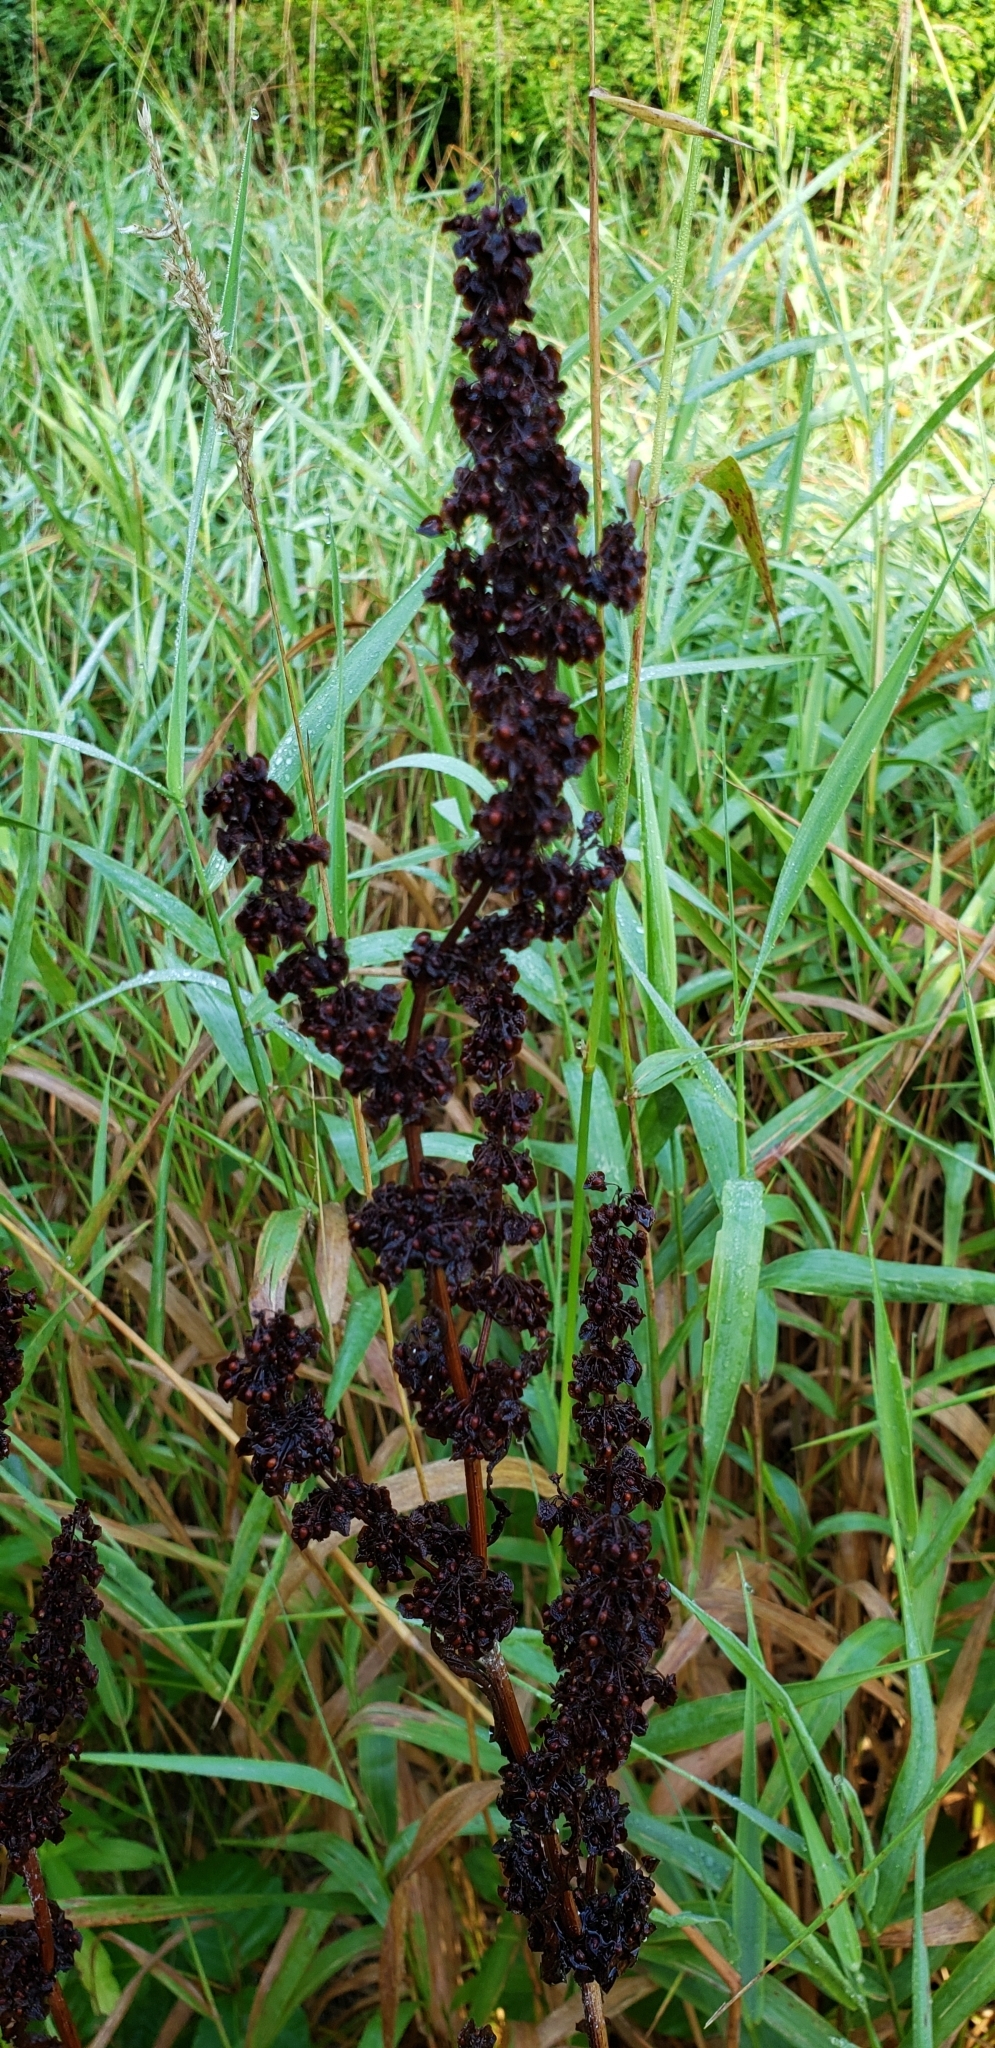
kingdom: Plantae
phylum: Tracheophyta
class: Magnoliopsida
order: Caryophyllales
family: Polygonaceae
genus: Rumex
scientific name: Rumex crispus
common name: Curled dock
